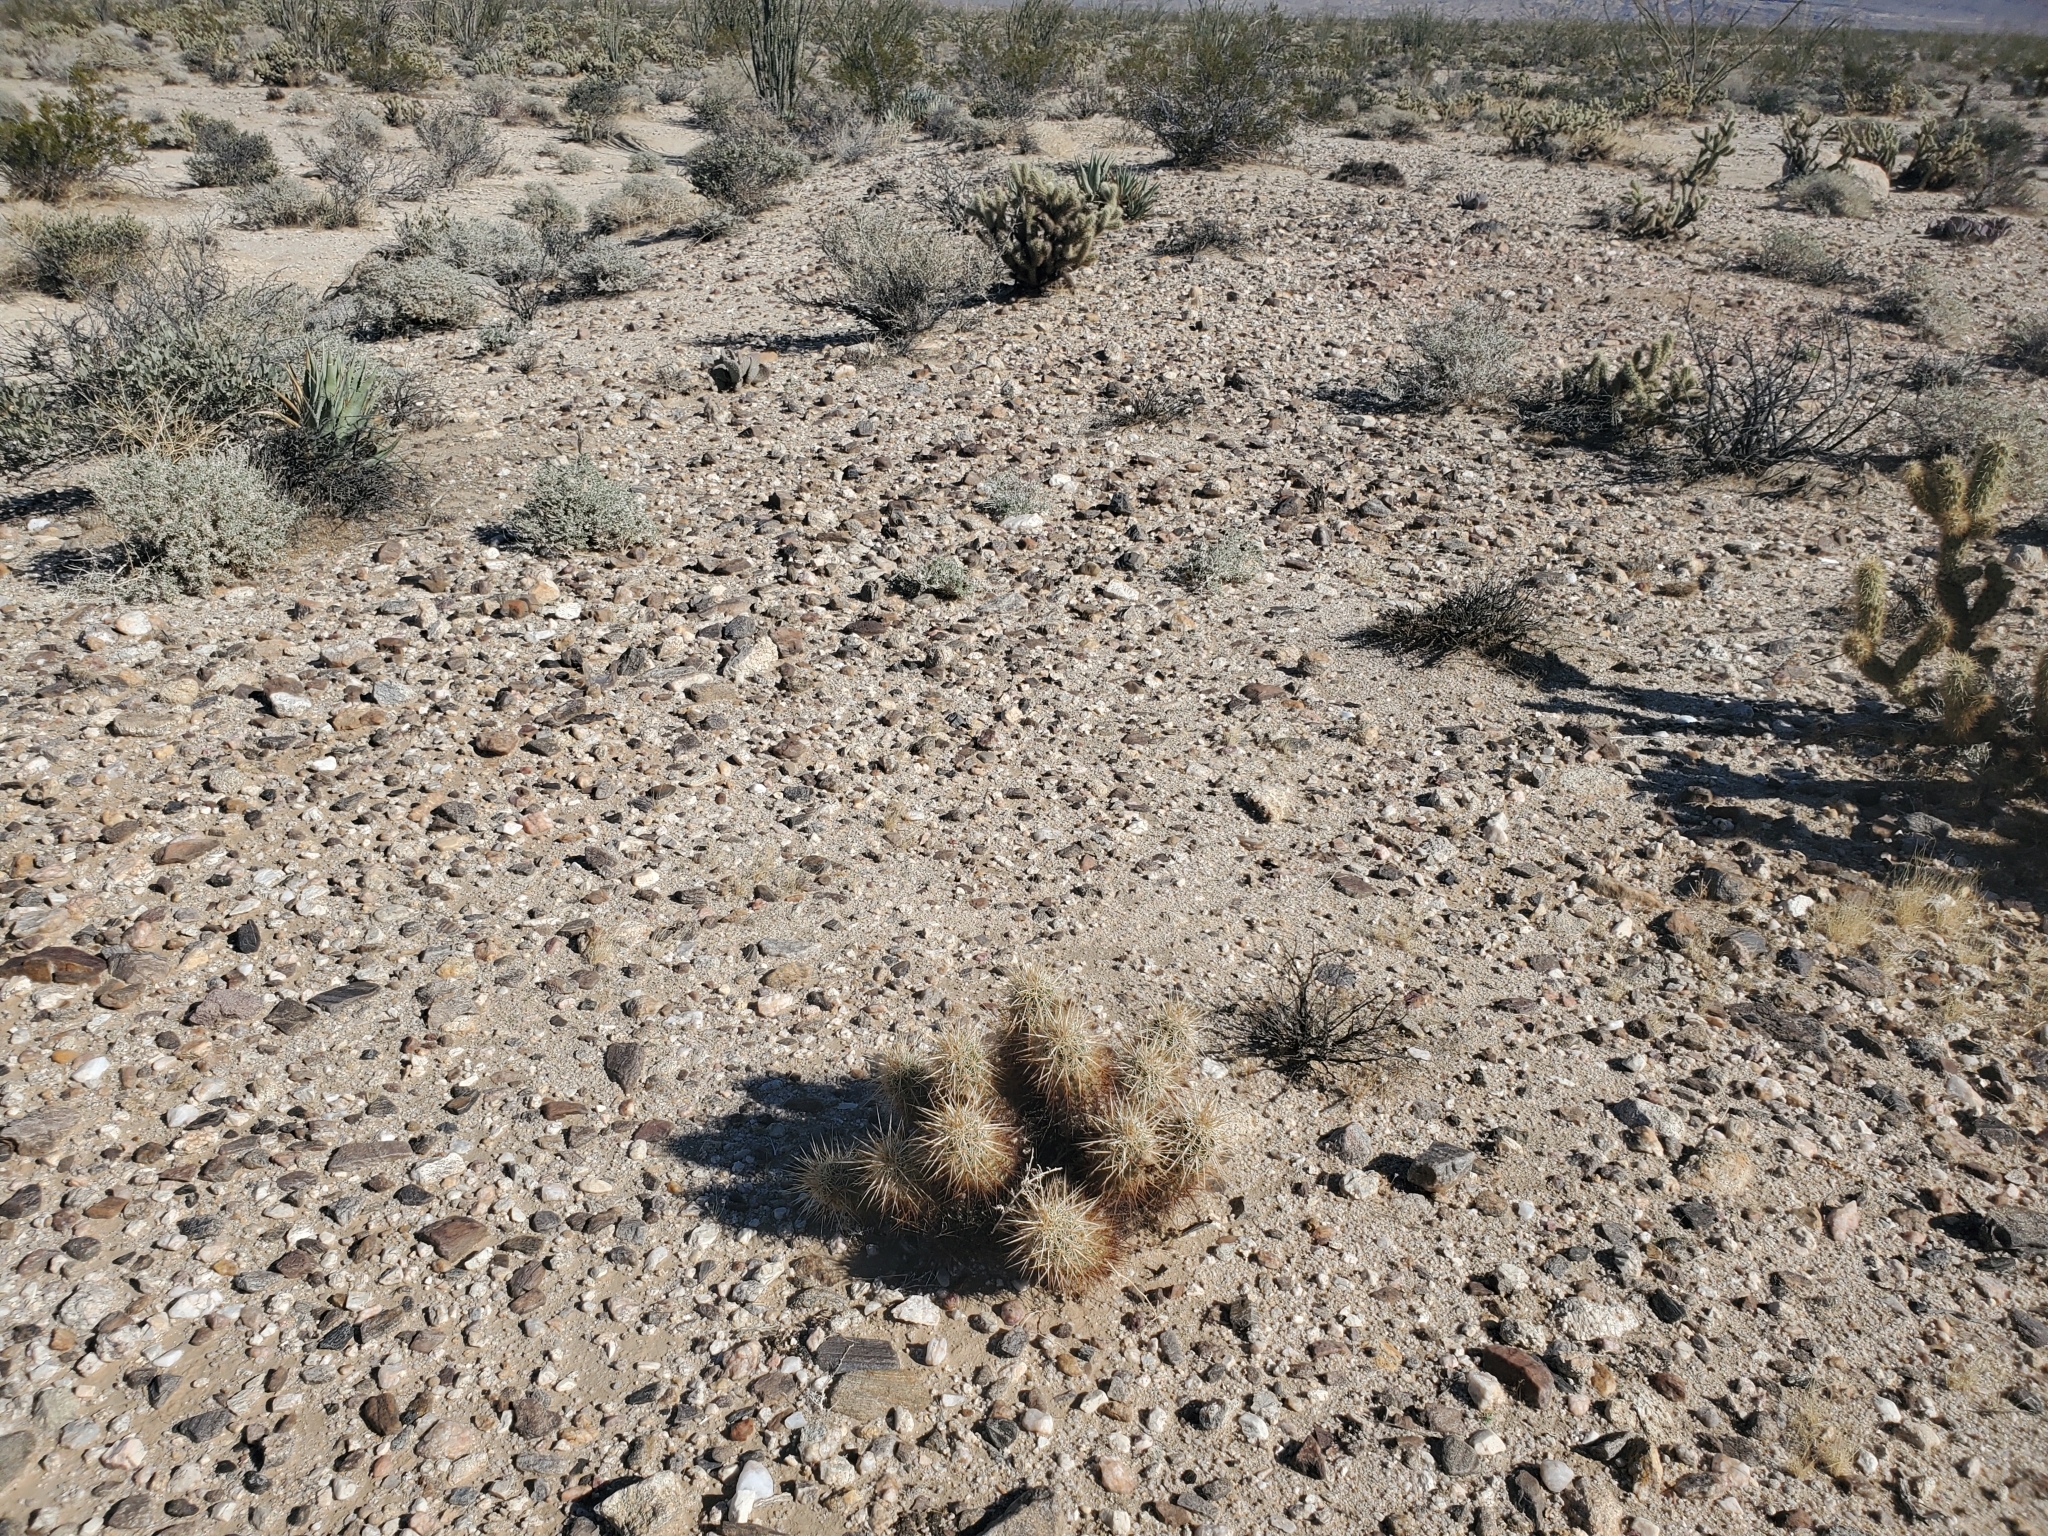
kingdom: Plantae
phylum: Tracheophyta
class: Magnoliopsida
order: Caryophyllales
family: Cactaceae
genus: Echinocereus
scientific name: Echinocereus engelmannii
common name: Engelmann's hedgehog cactus
